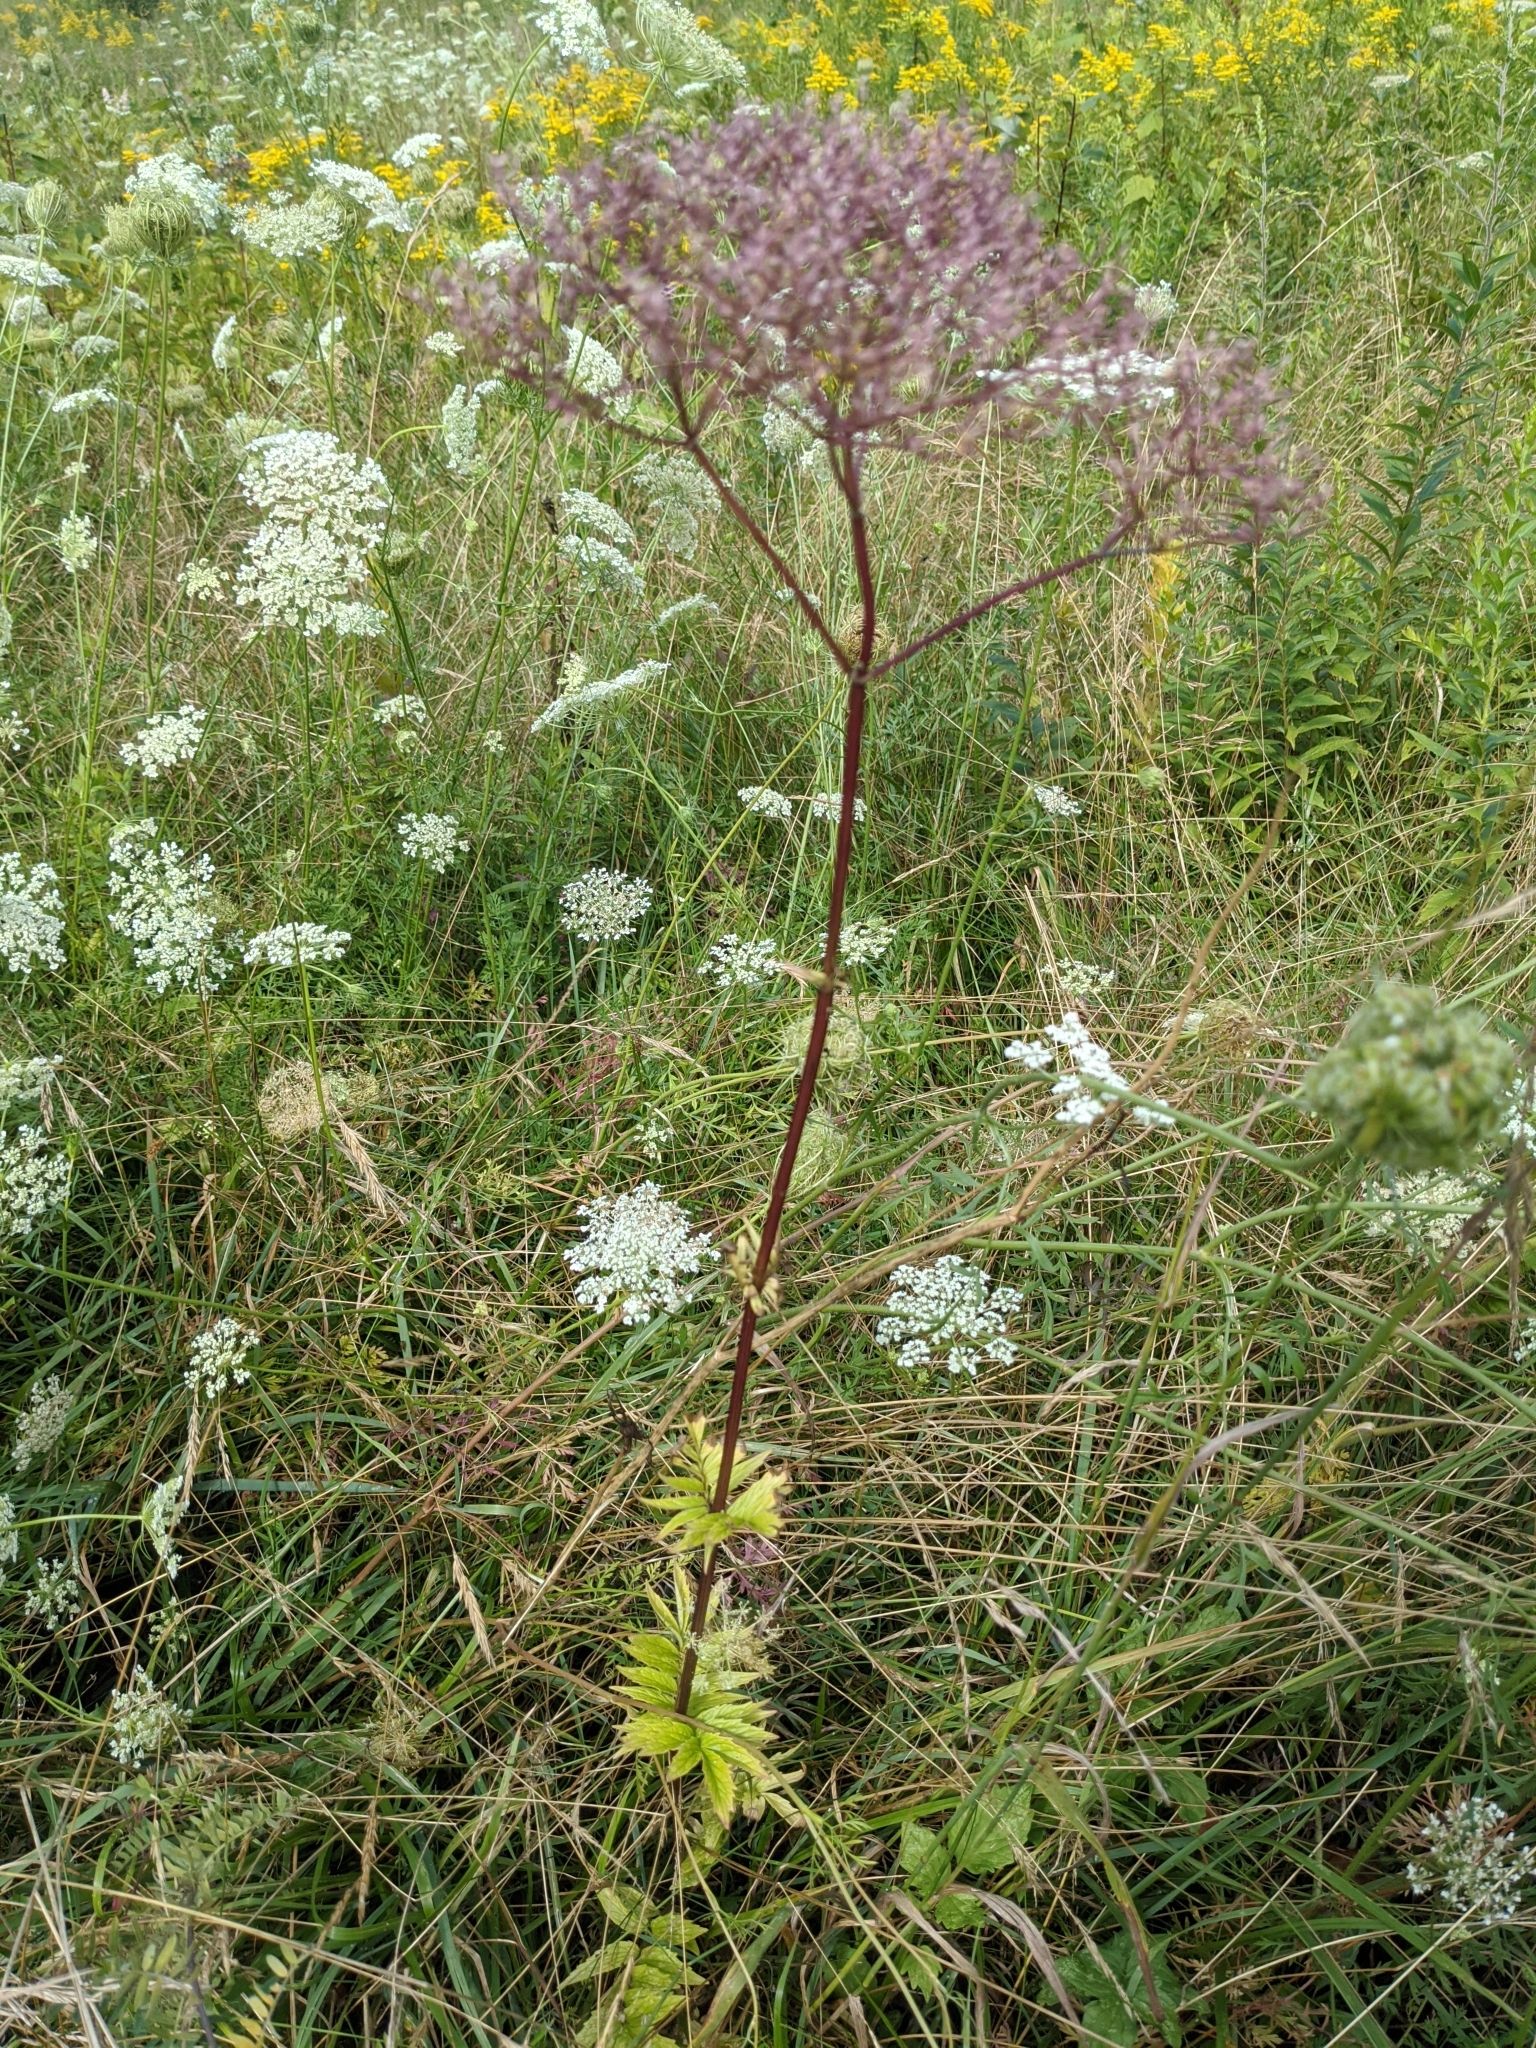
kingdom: Plantae
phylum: Tracheophyta
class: Magnoliopsida
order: Dipsacales
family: Caprifoliaceae
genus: Valeriana
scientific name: Valeriana officinalis
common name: Common valerian
